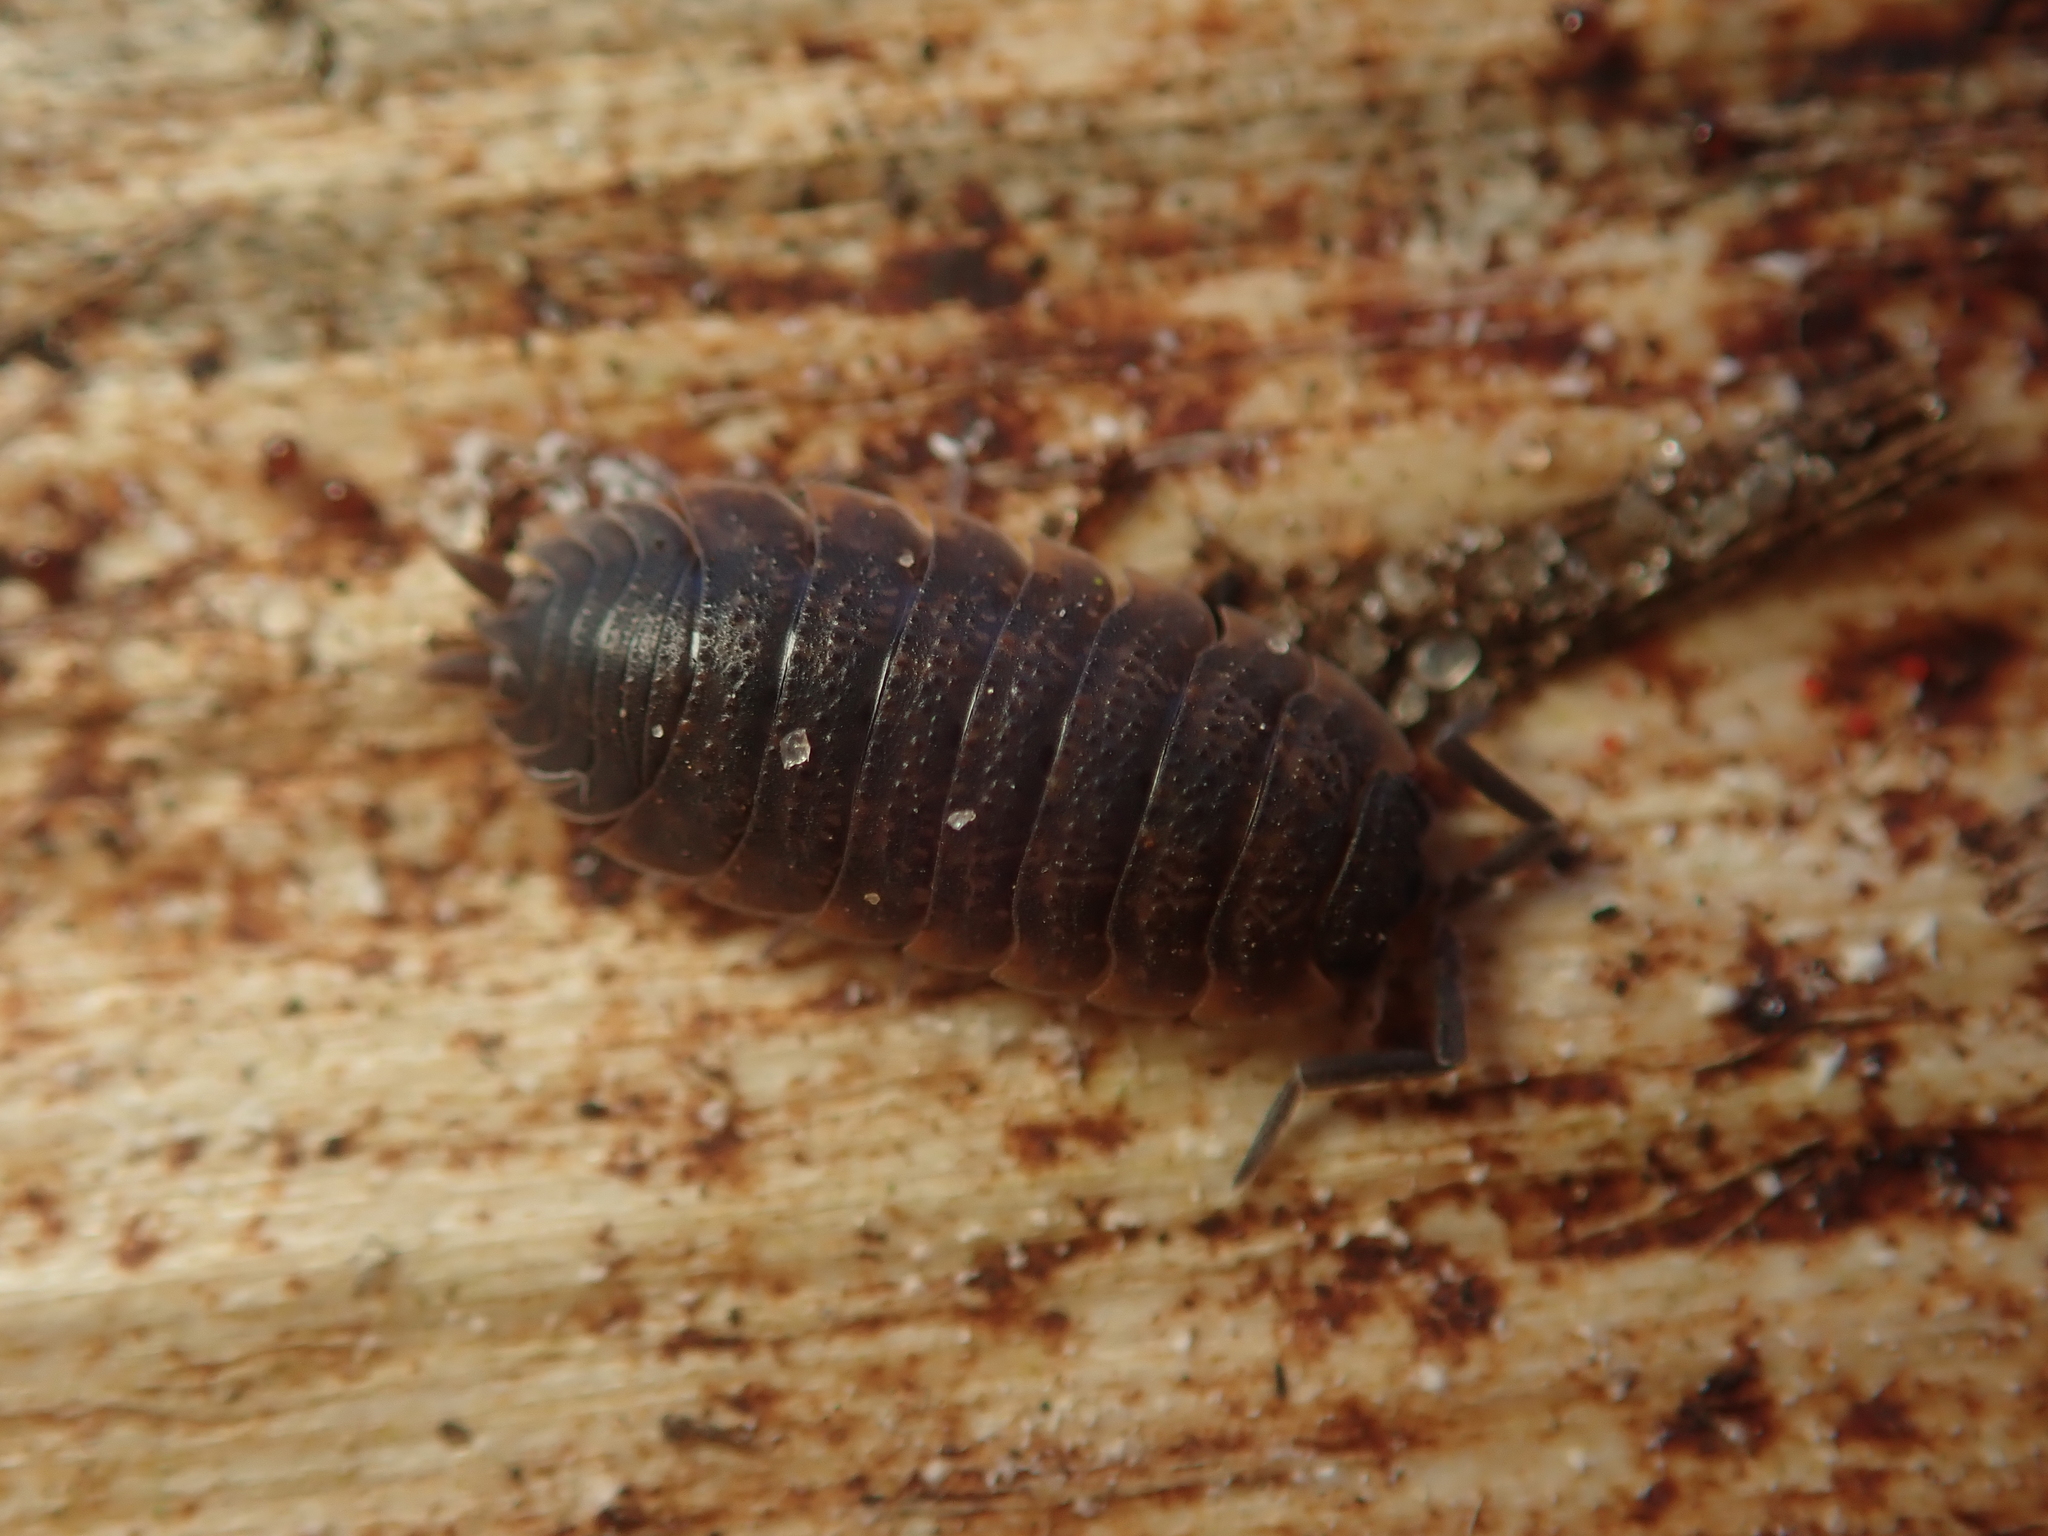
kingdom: Animalia
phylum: Arthropoda
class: Malacostraca
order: Isopoda
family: Porcellionidae
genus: Porcellio
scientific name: Porcellio scaber
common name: Common rough woodlouse
